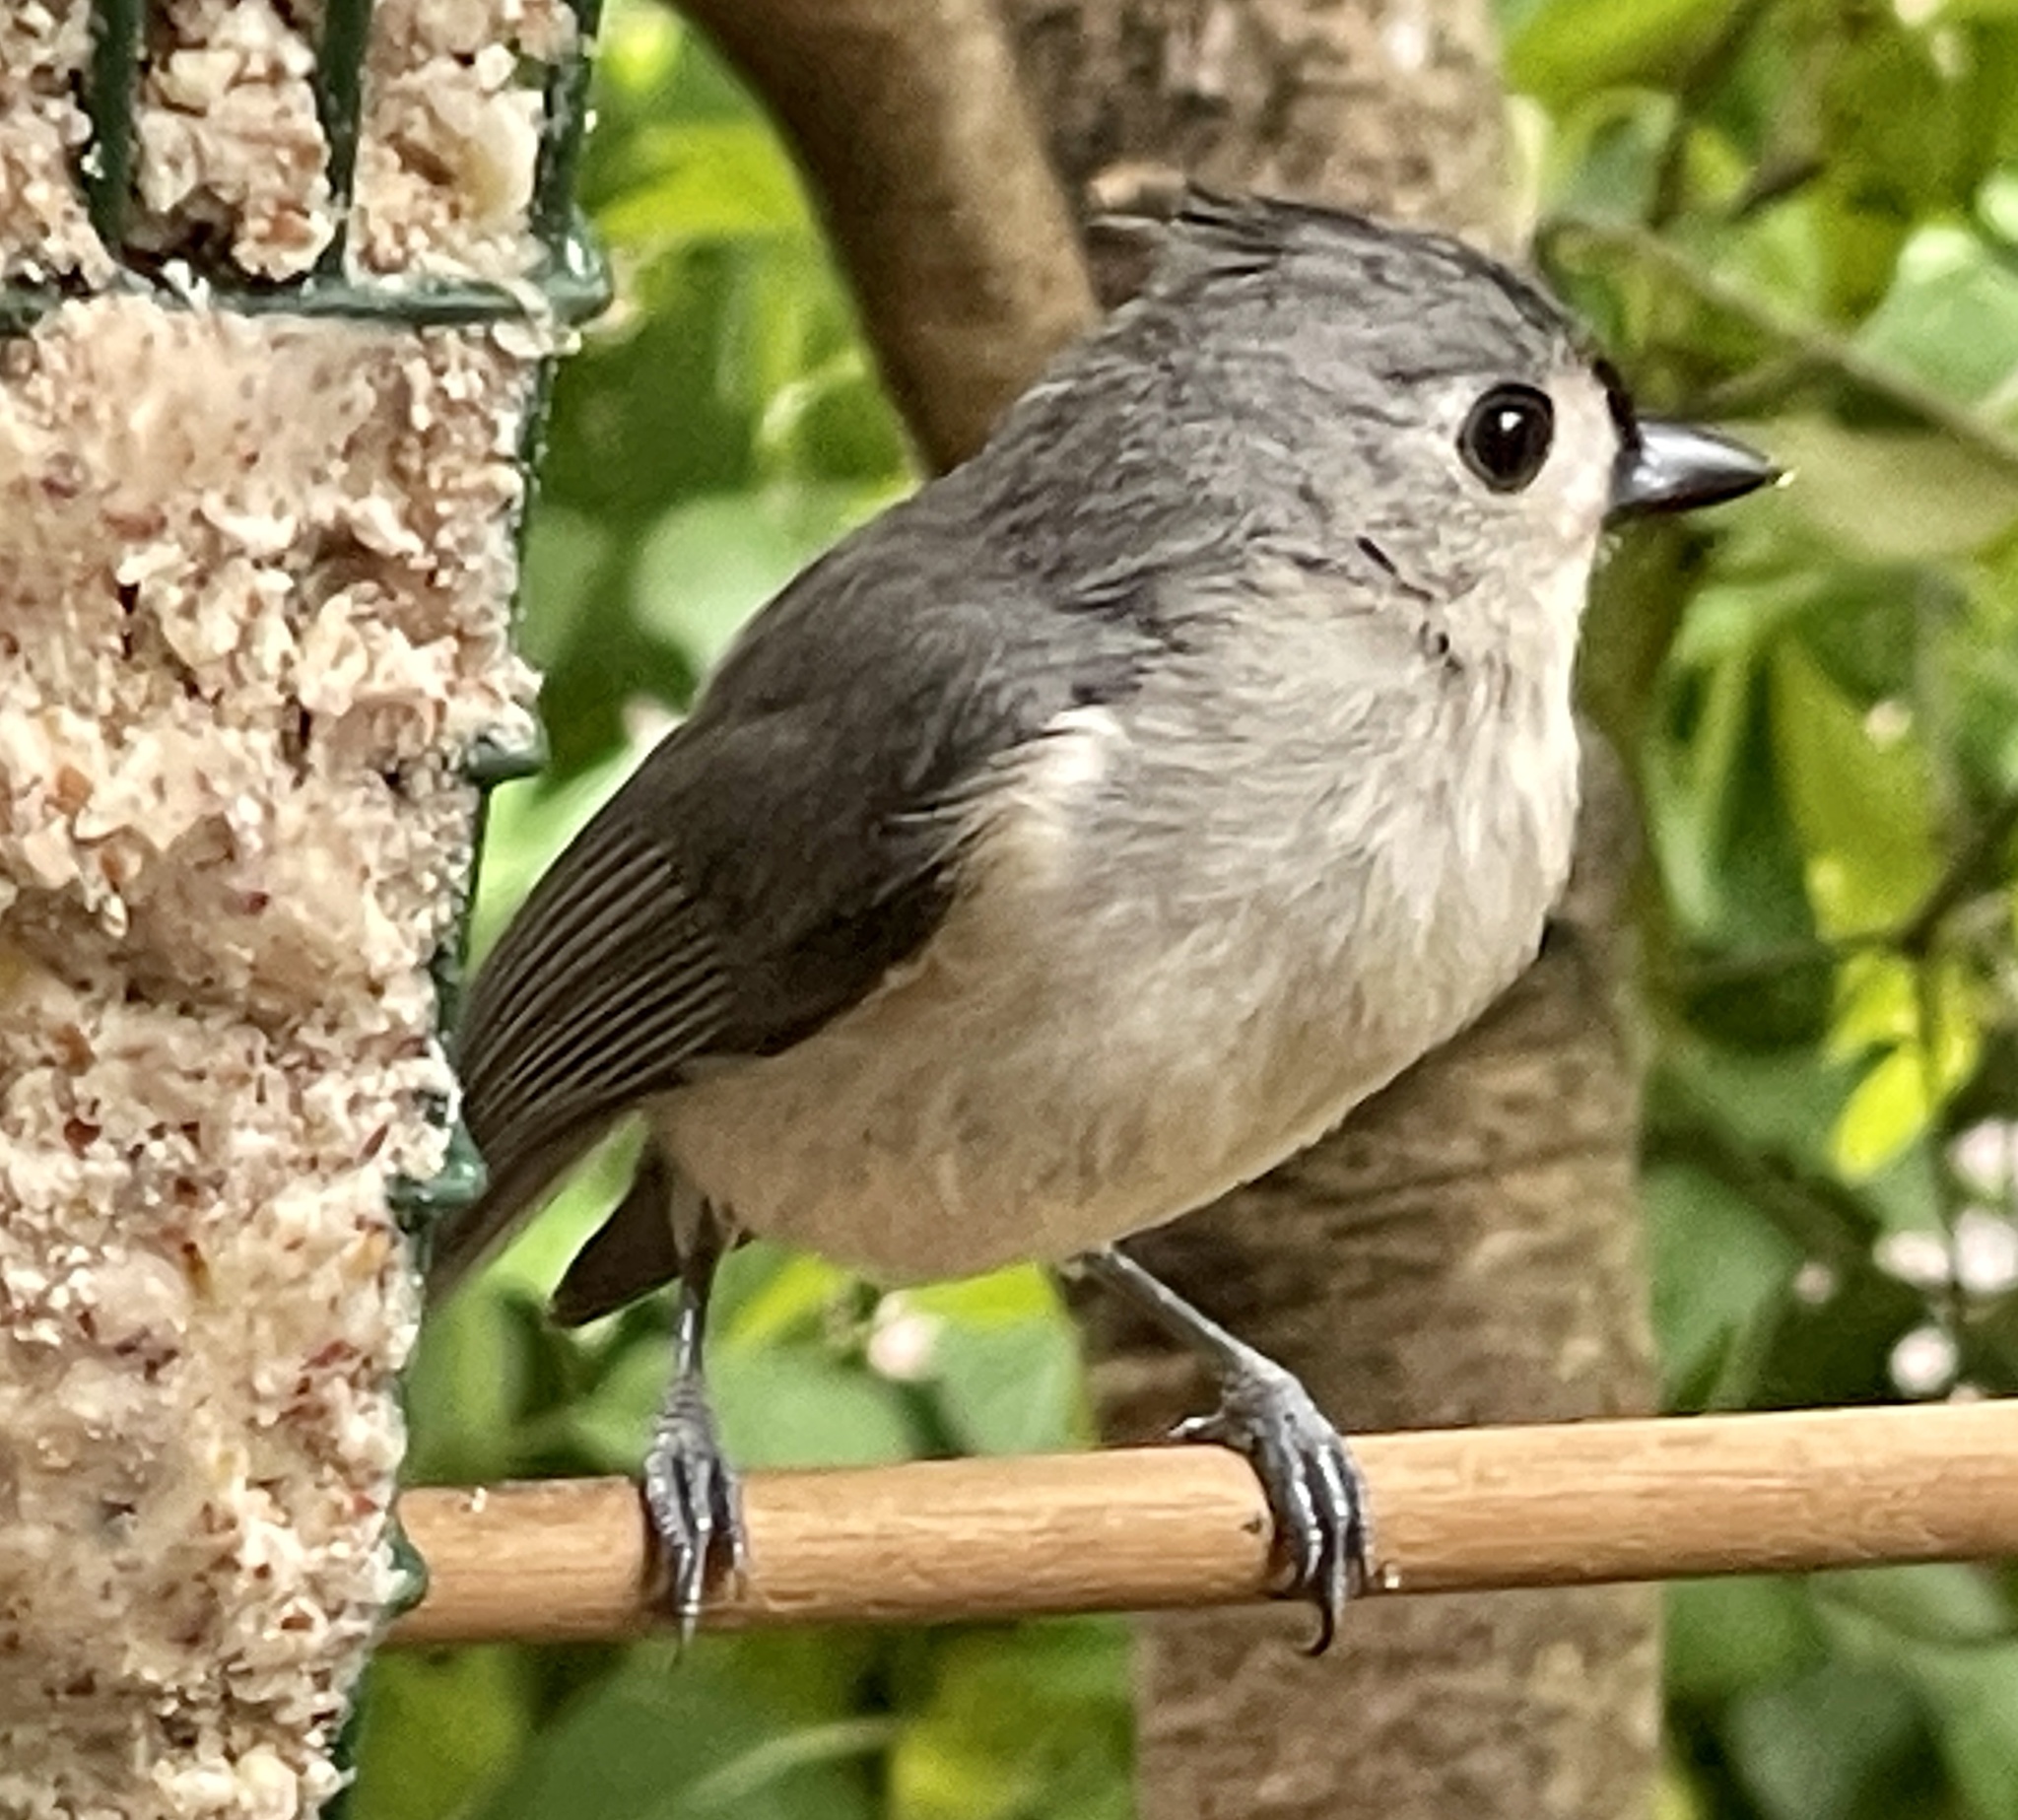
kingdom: Animalia
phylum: Chordata
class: Aves
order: Passeriformes
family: Paridae
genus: Baeolophus
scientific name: Baeolophus bicolor
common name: Tufted titmouse
